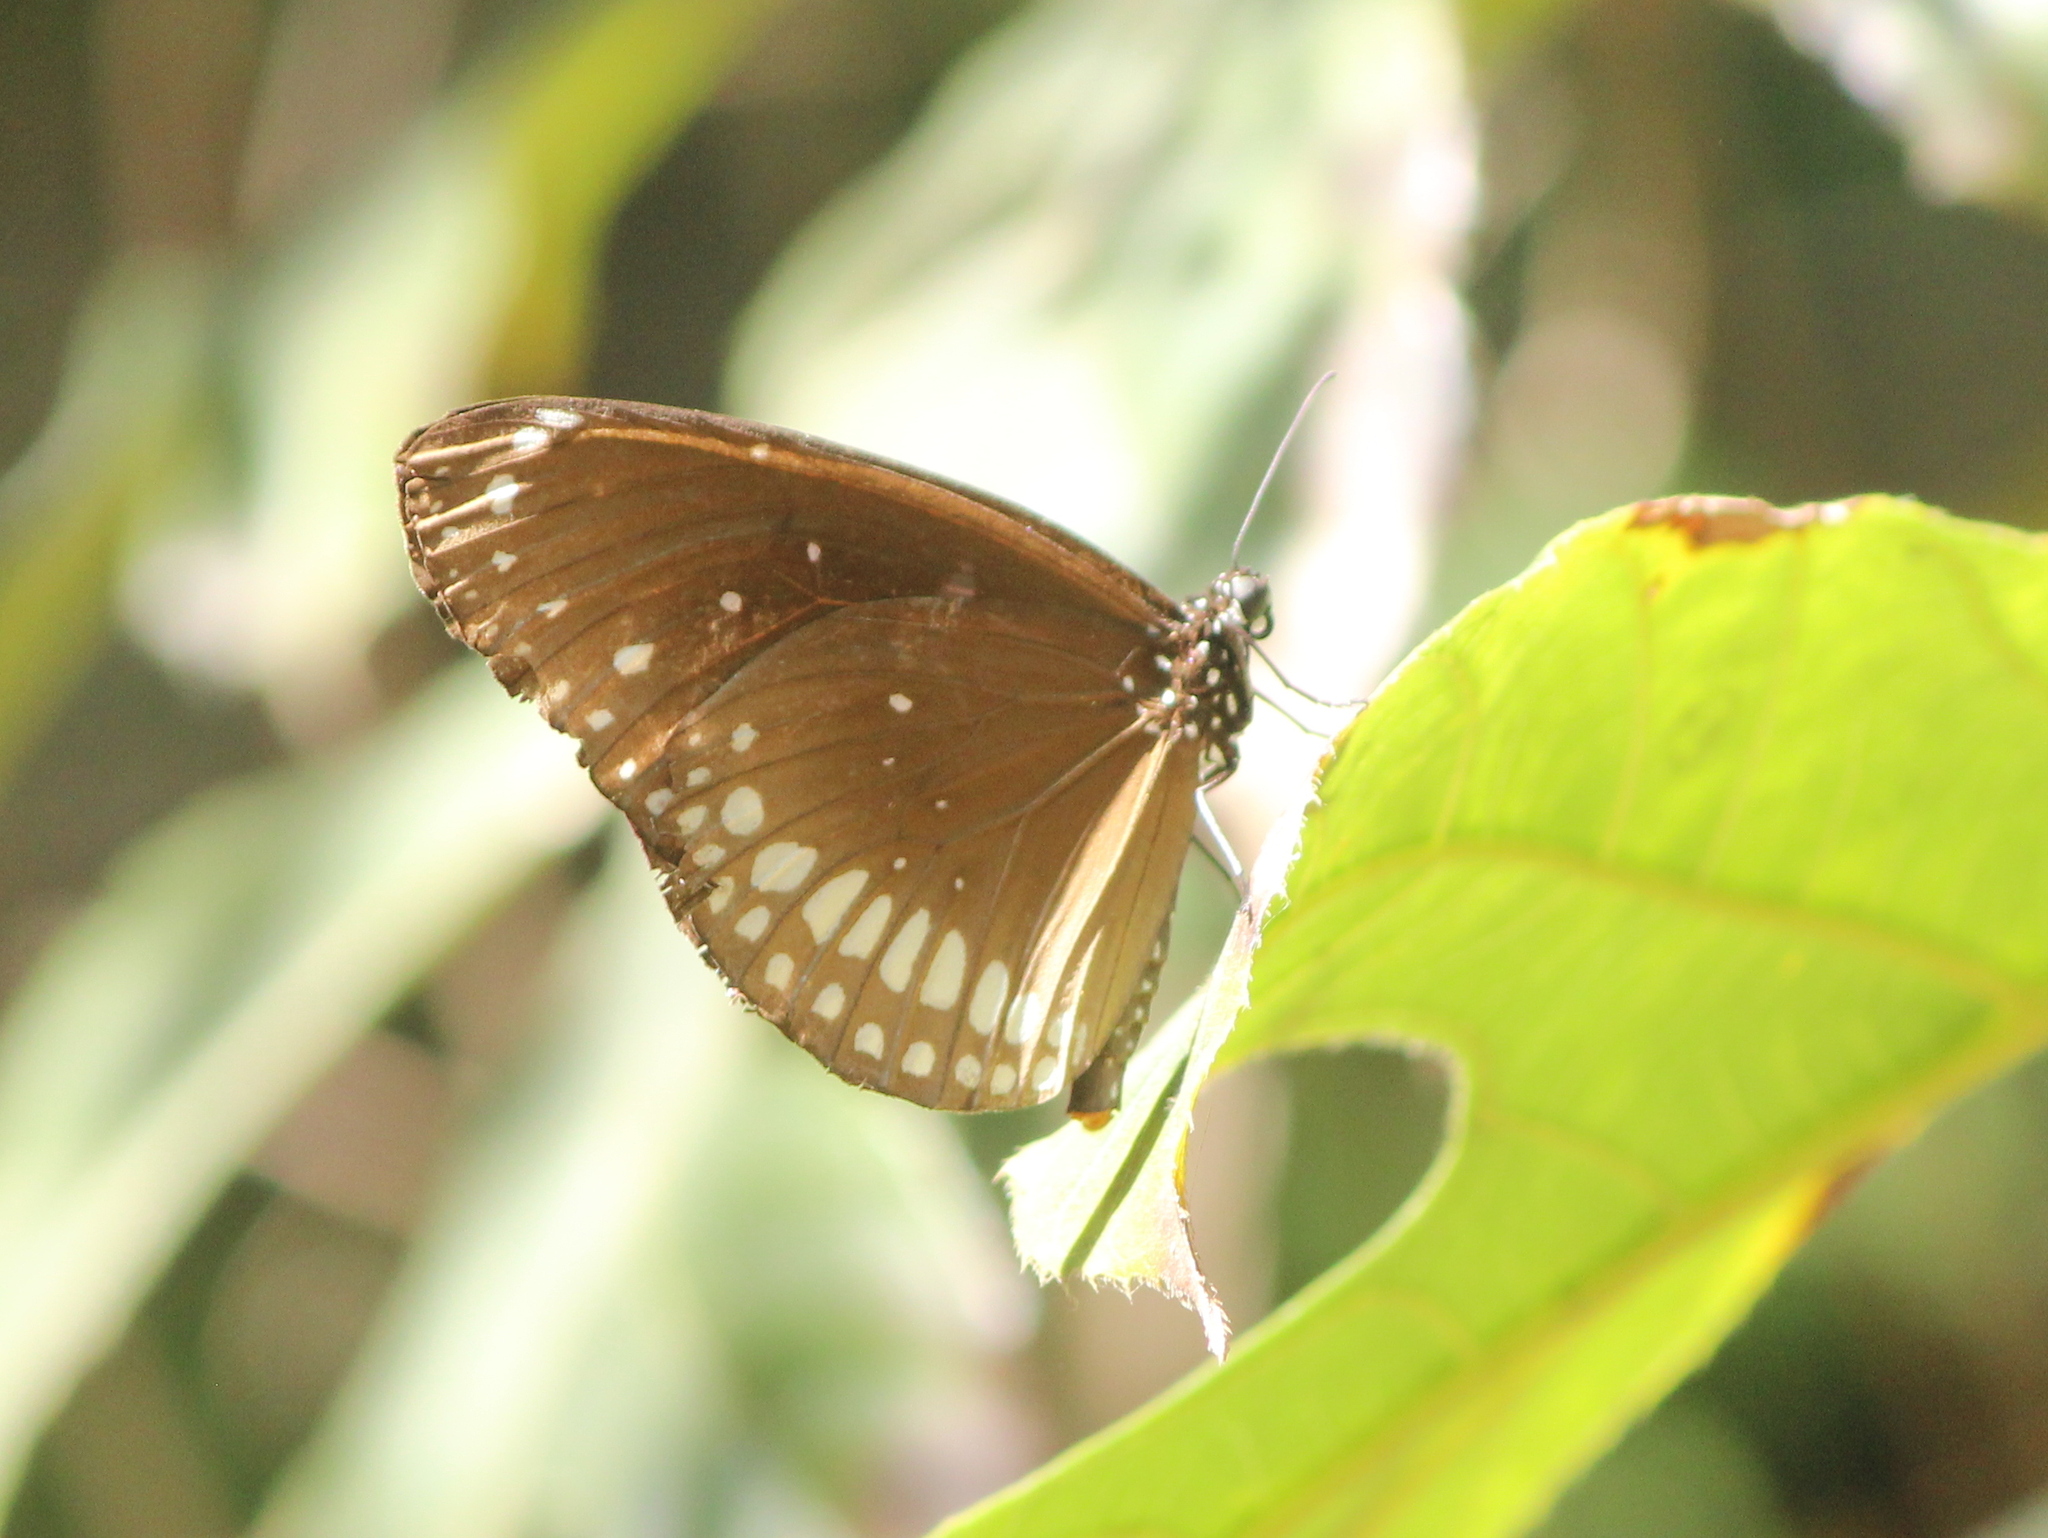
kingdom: Animalia
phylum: Arthropoda
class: Insecta
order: Lepidoptera
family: Nymphalidae
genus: Euploea
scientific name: Euploea core
